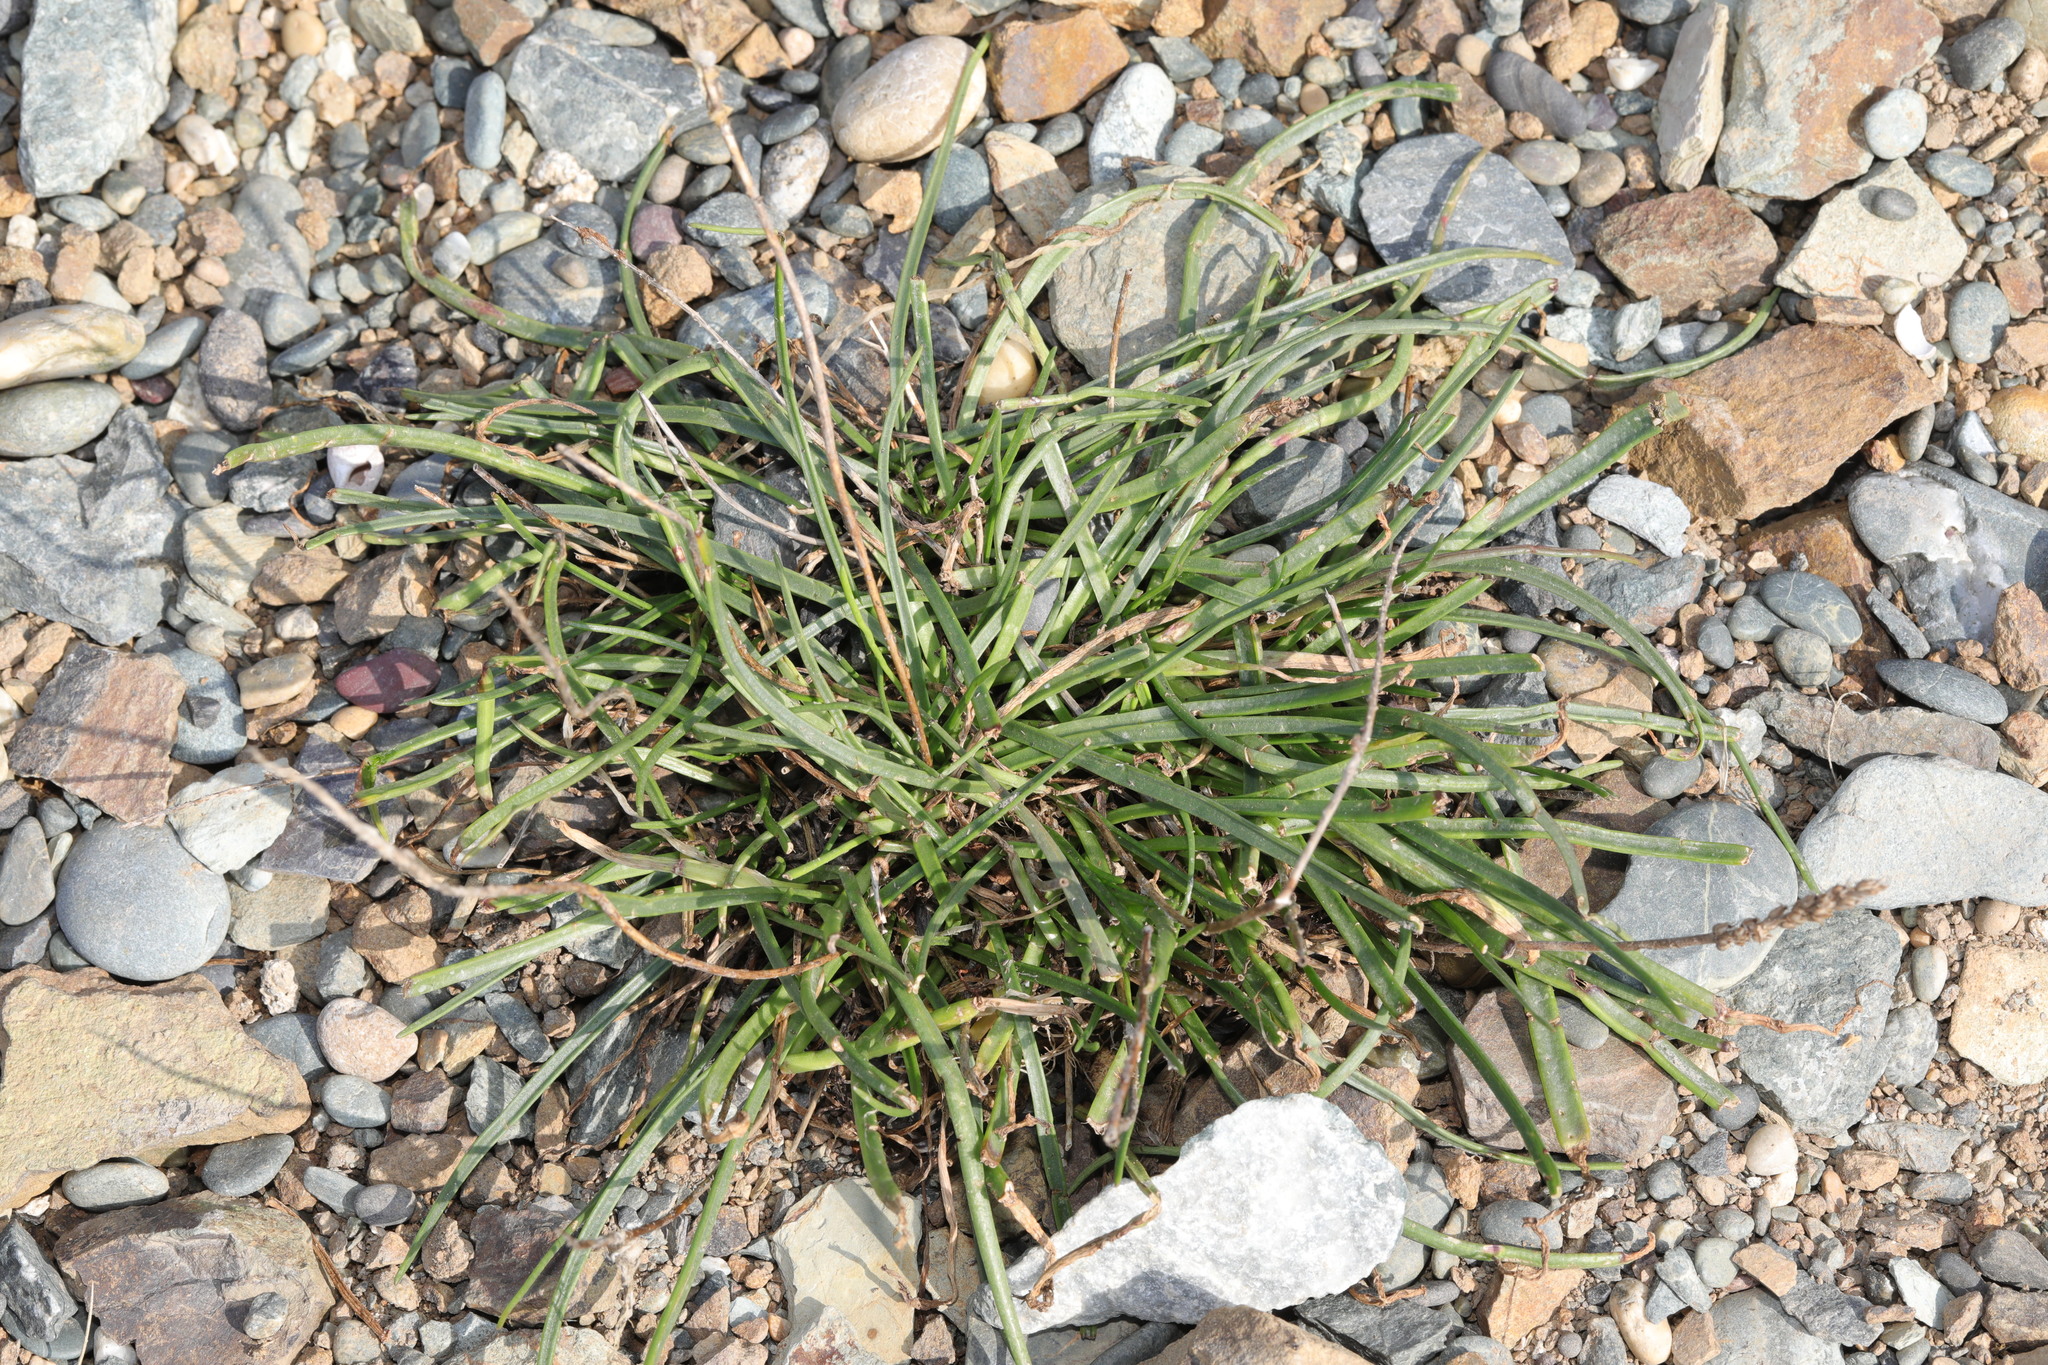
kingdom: Plantae
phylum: Tracheophyta
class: Magnoliopsida
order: Lamiales
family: Plantaginaceae
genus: Plantago
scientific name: Plantago maritima
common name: Sea plantain
